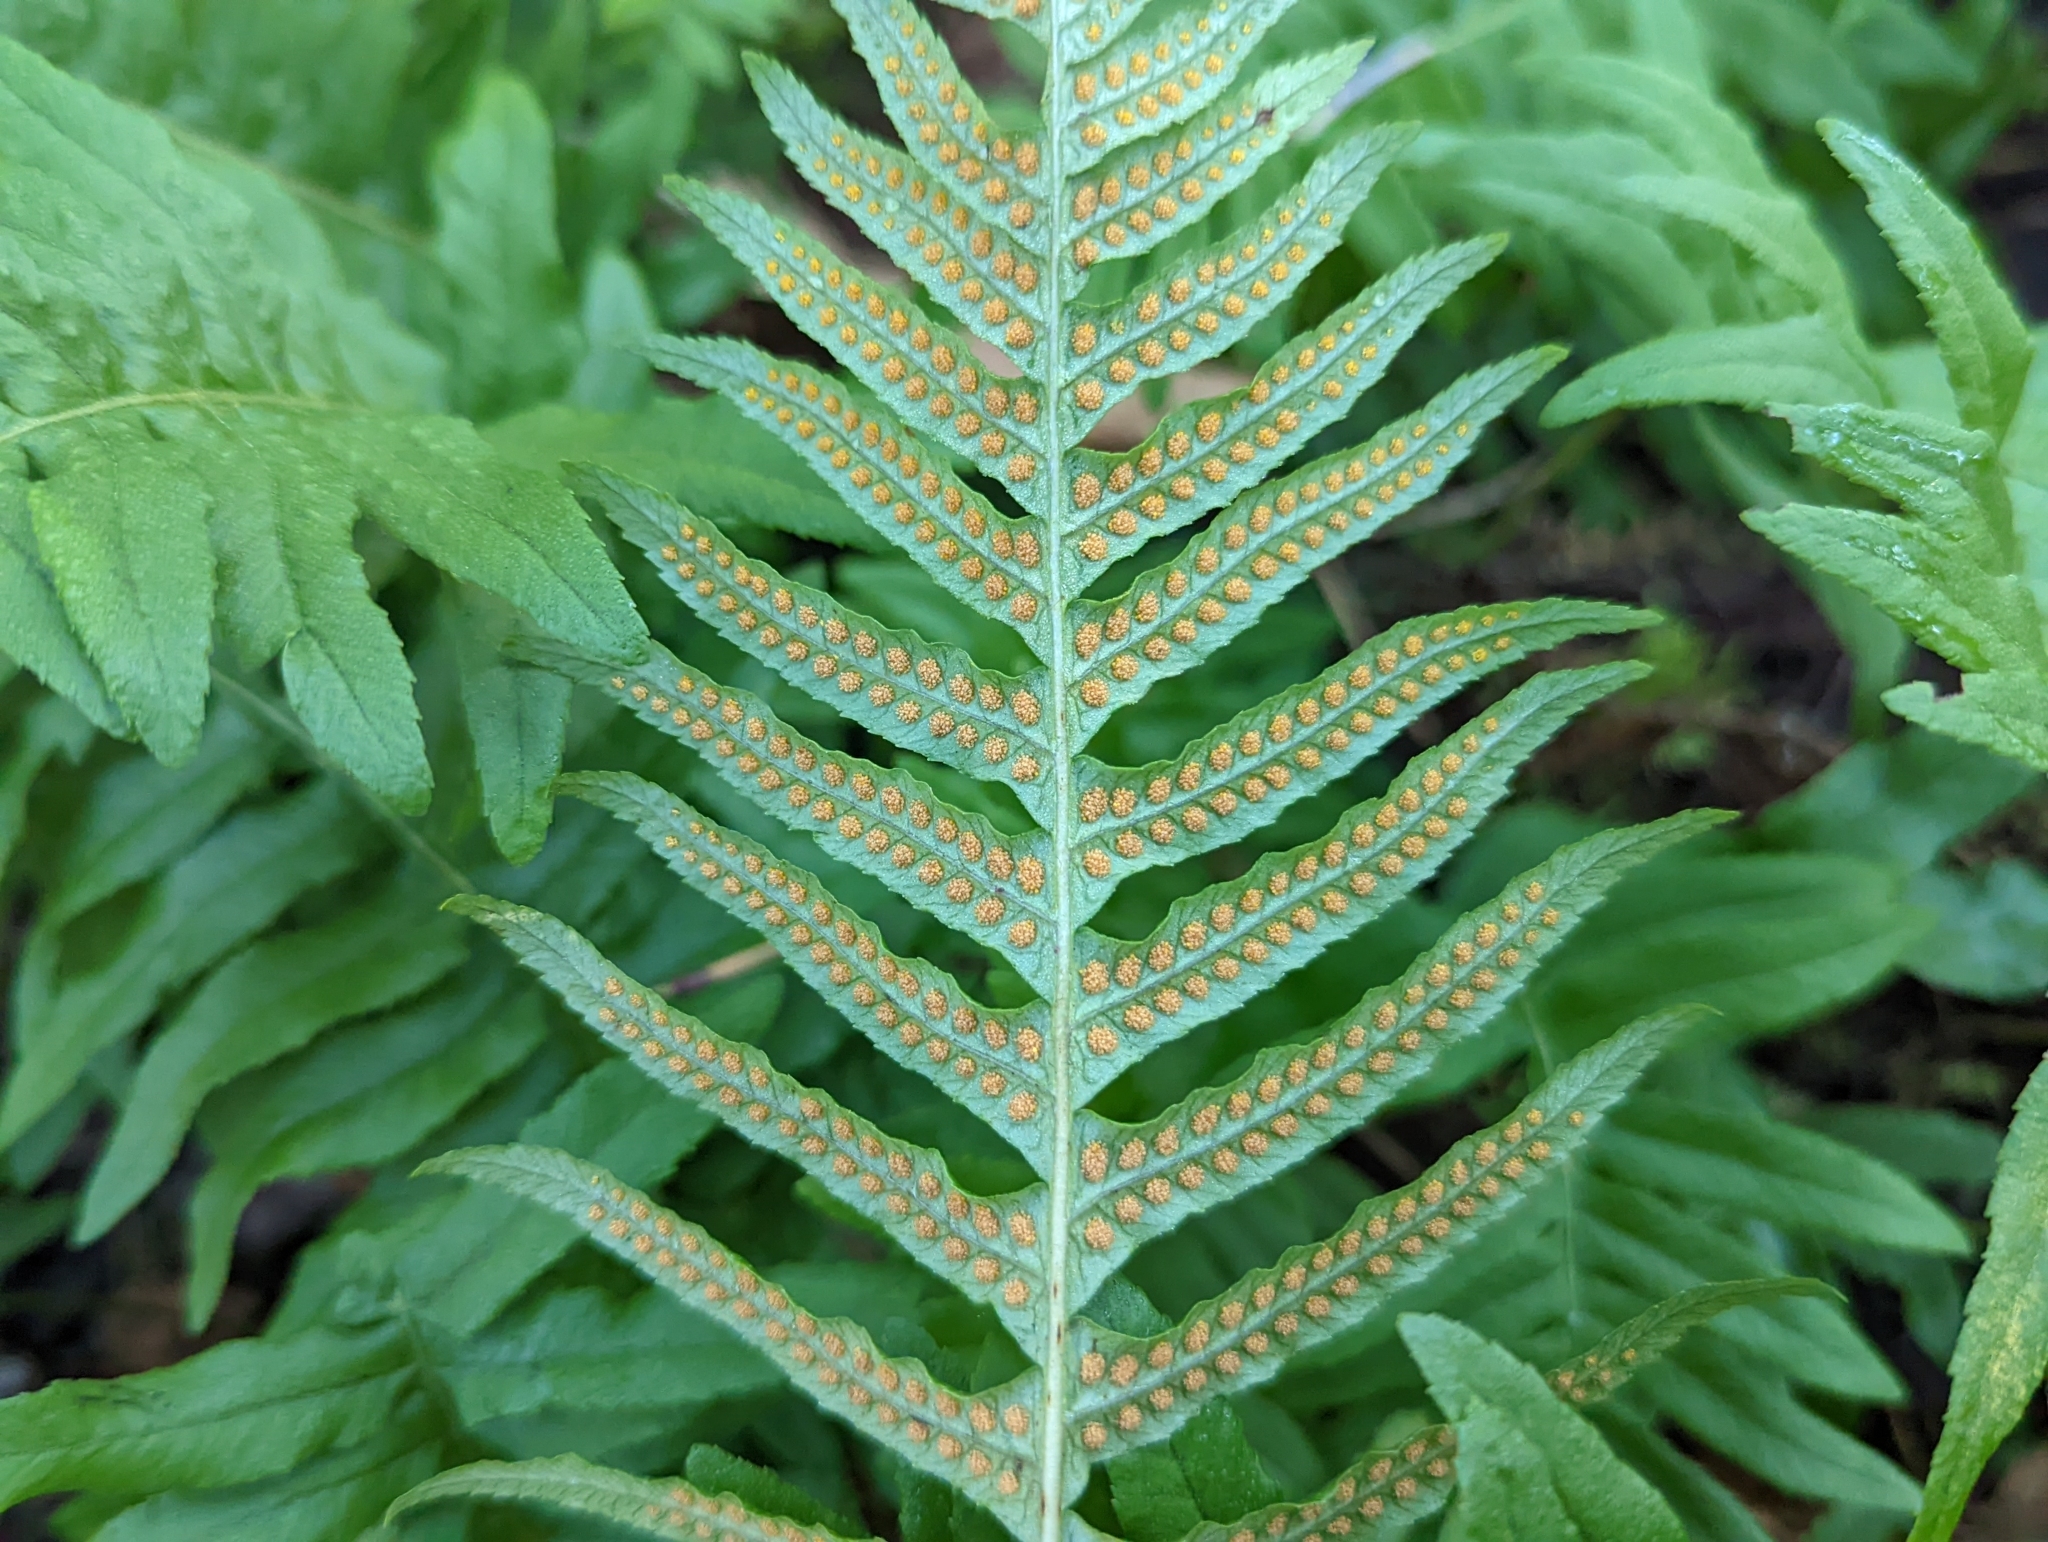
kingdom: Plantae
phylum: Tracheophyta
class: Polypodiopsida
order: Polypodiales
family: Polypodiaceae
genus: Polypodium
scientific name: Polypodium glycyrrhiza
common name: Licorice fern
